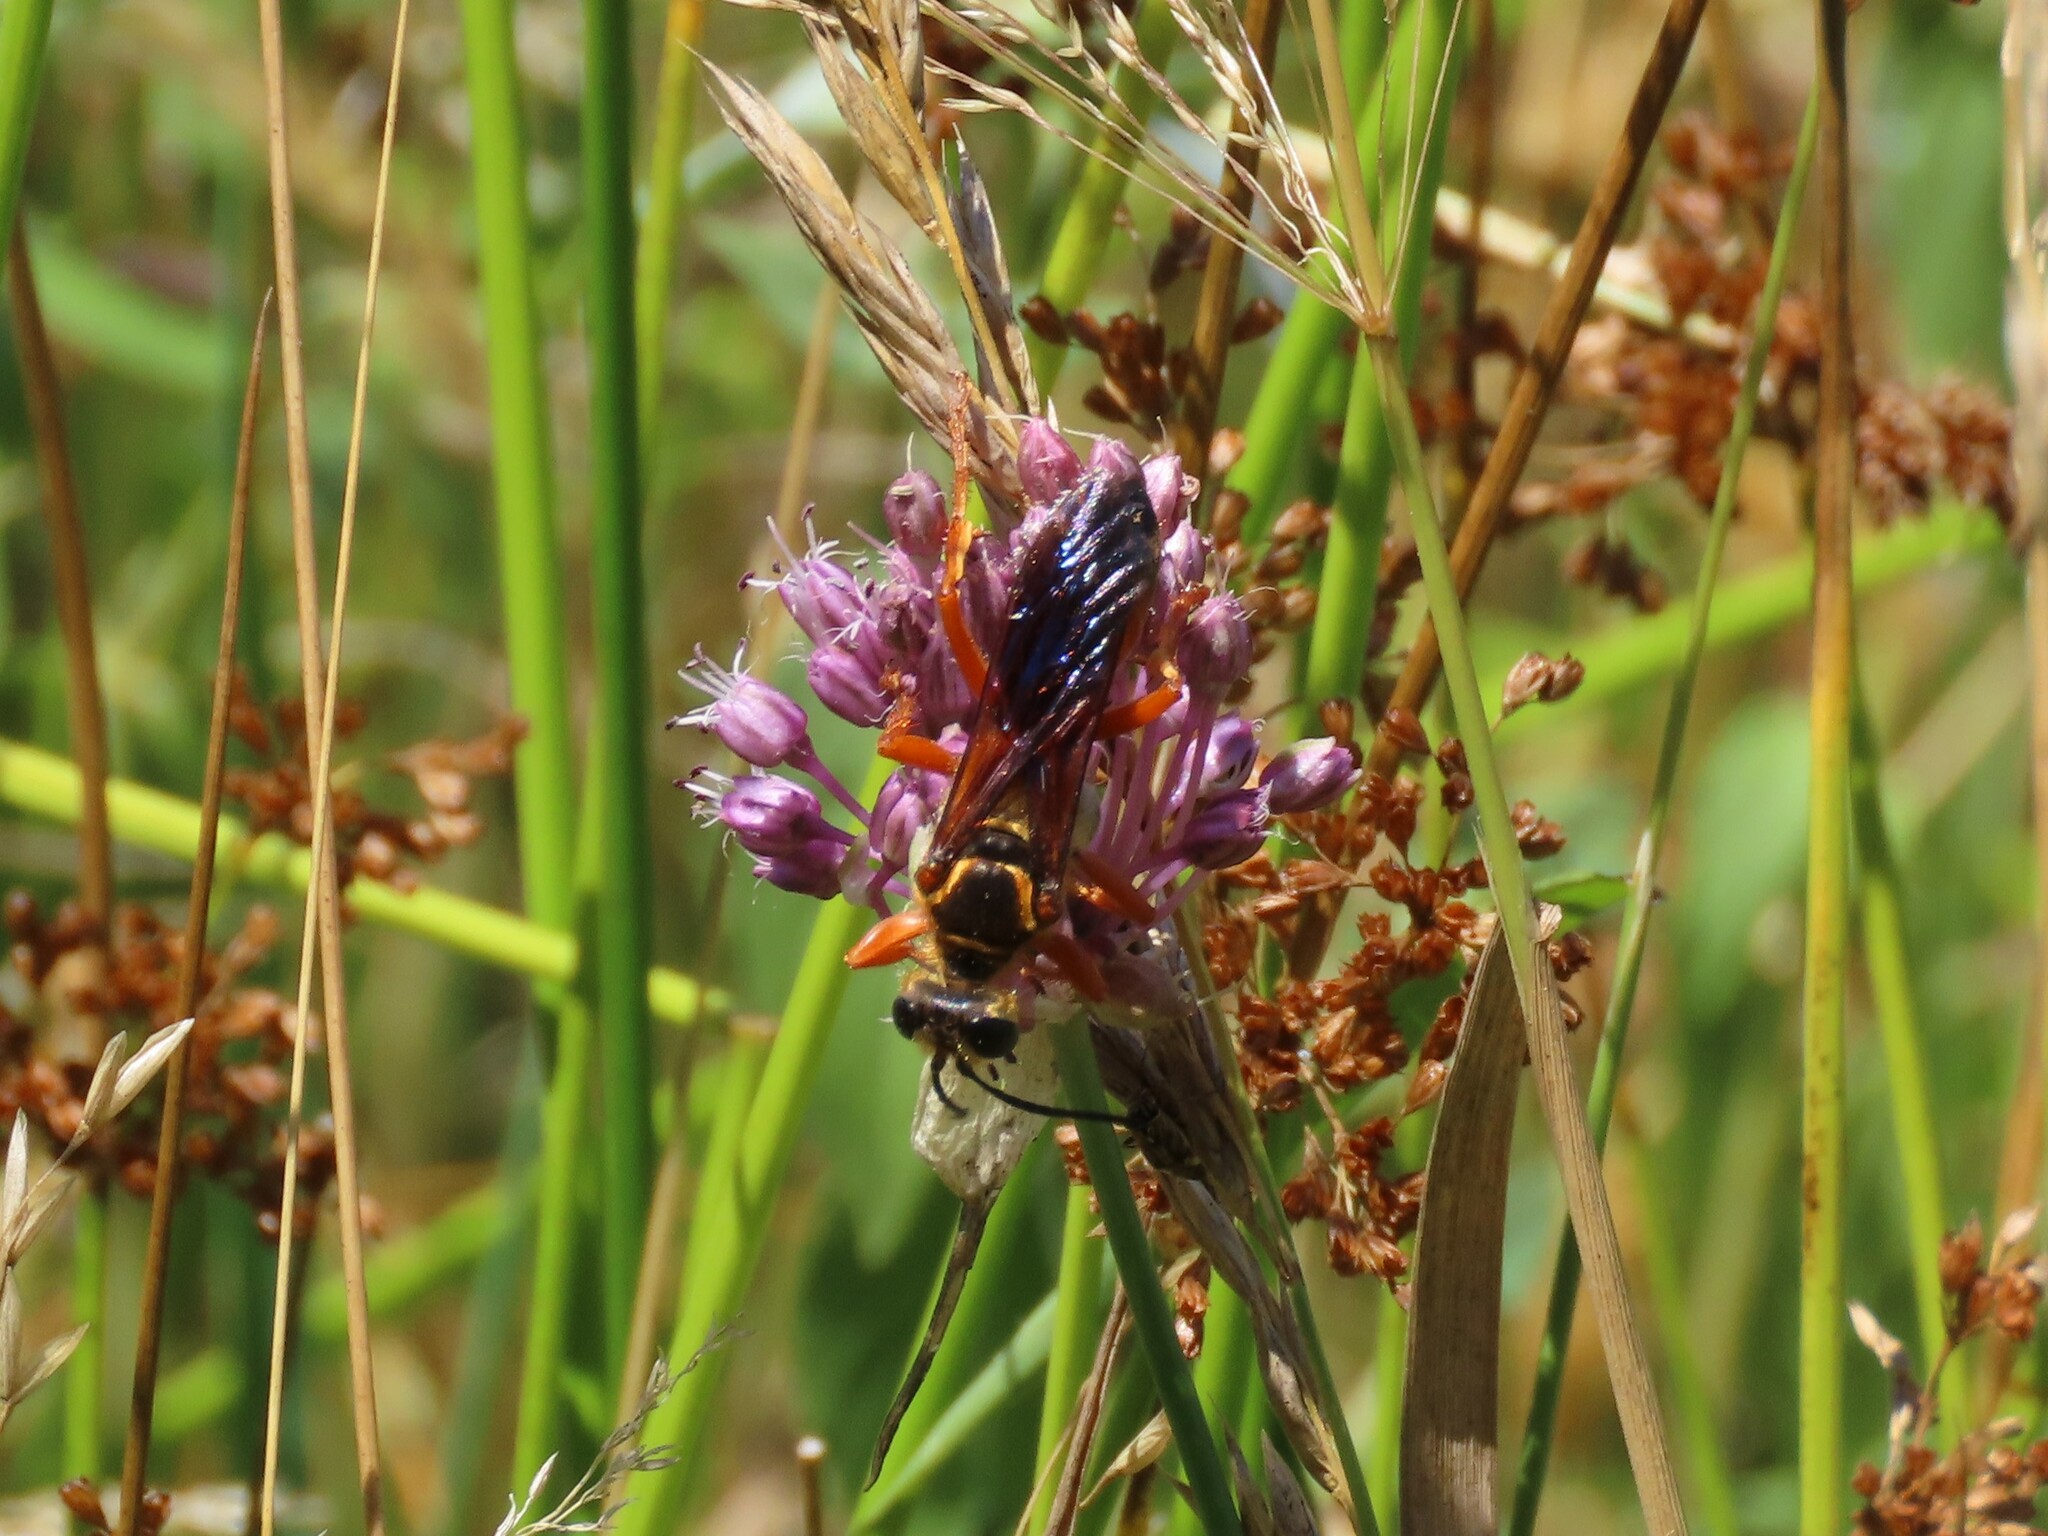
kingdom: Animalia
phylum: Arthropoda
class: Insecta
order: Hymenoptera
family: Sphecidae
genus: Sphex
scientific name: Sphex ichneumoneus
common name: Great golden digger wasp
